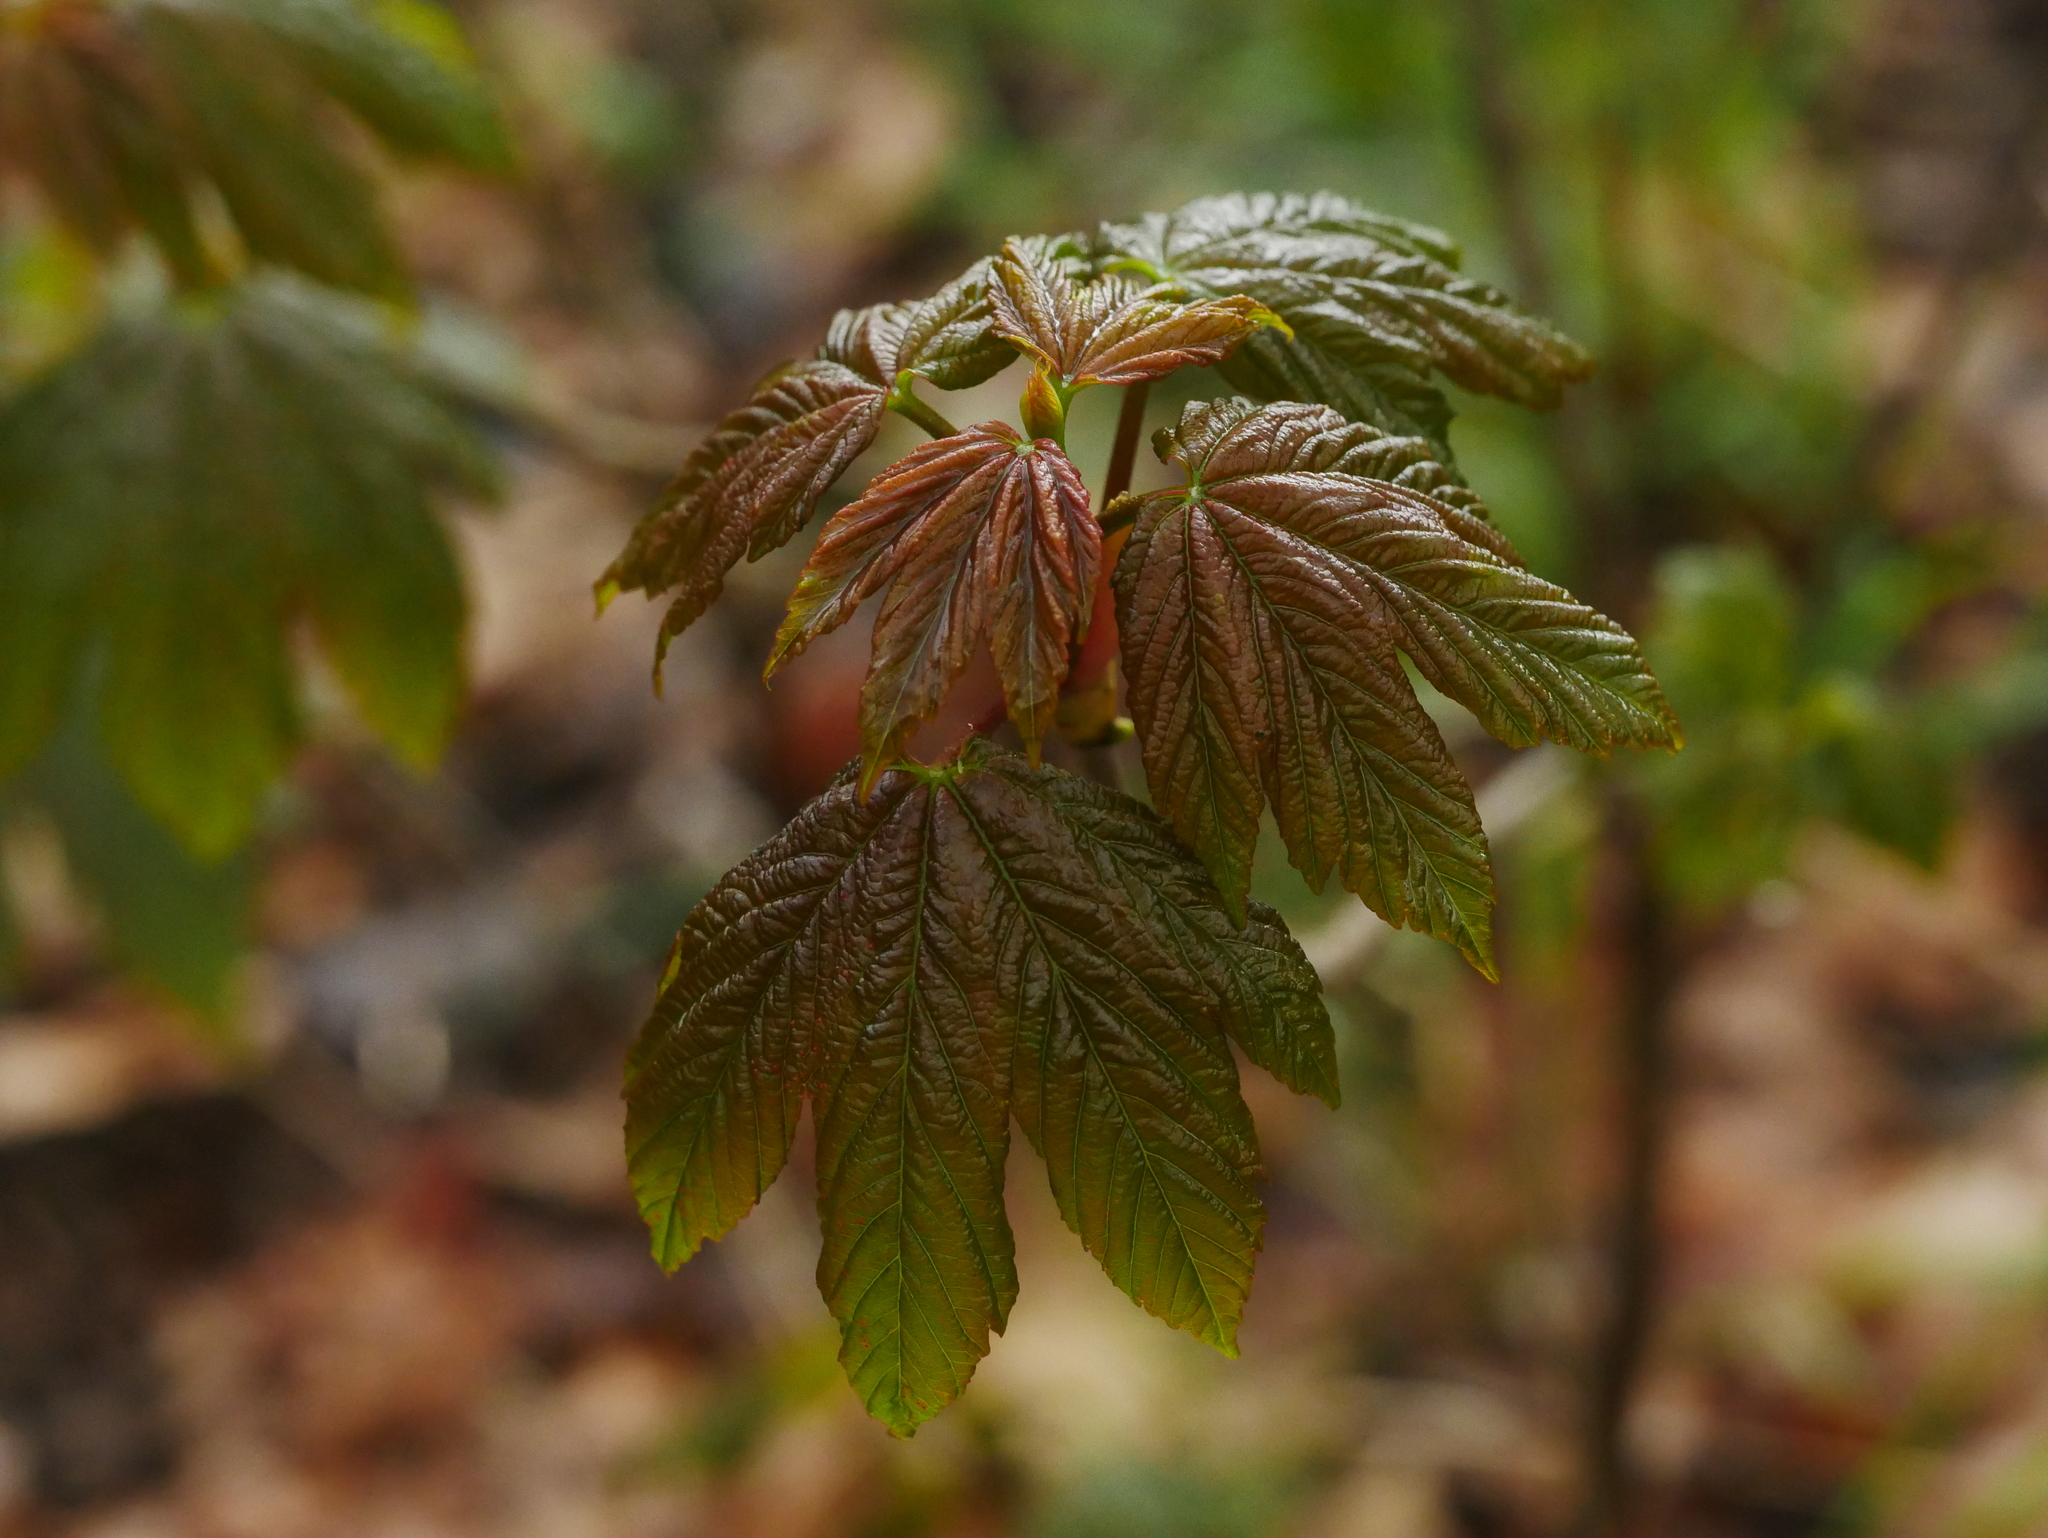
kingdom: Plantae
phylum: Tracheophyta
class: Magnoliopsida
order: Sapindales
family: Sapindaceae
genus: Acer
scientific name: Acer pseudoplatanus
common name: Sycamore
